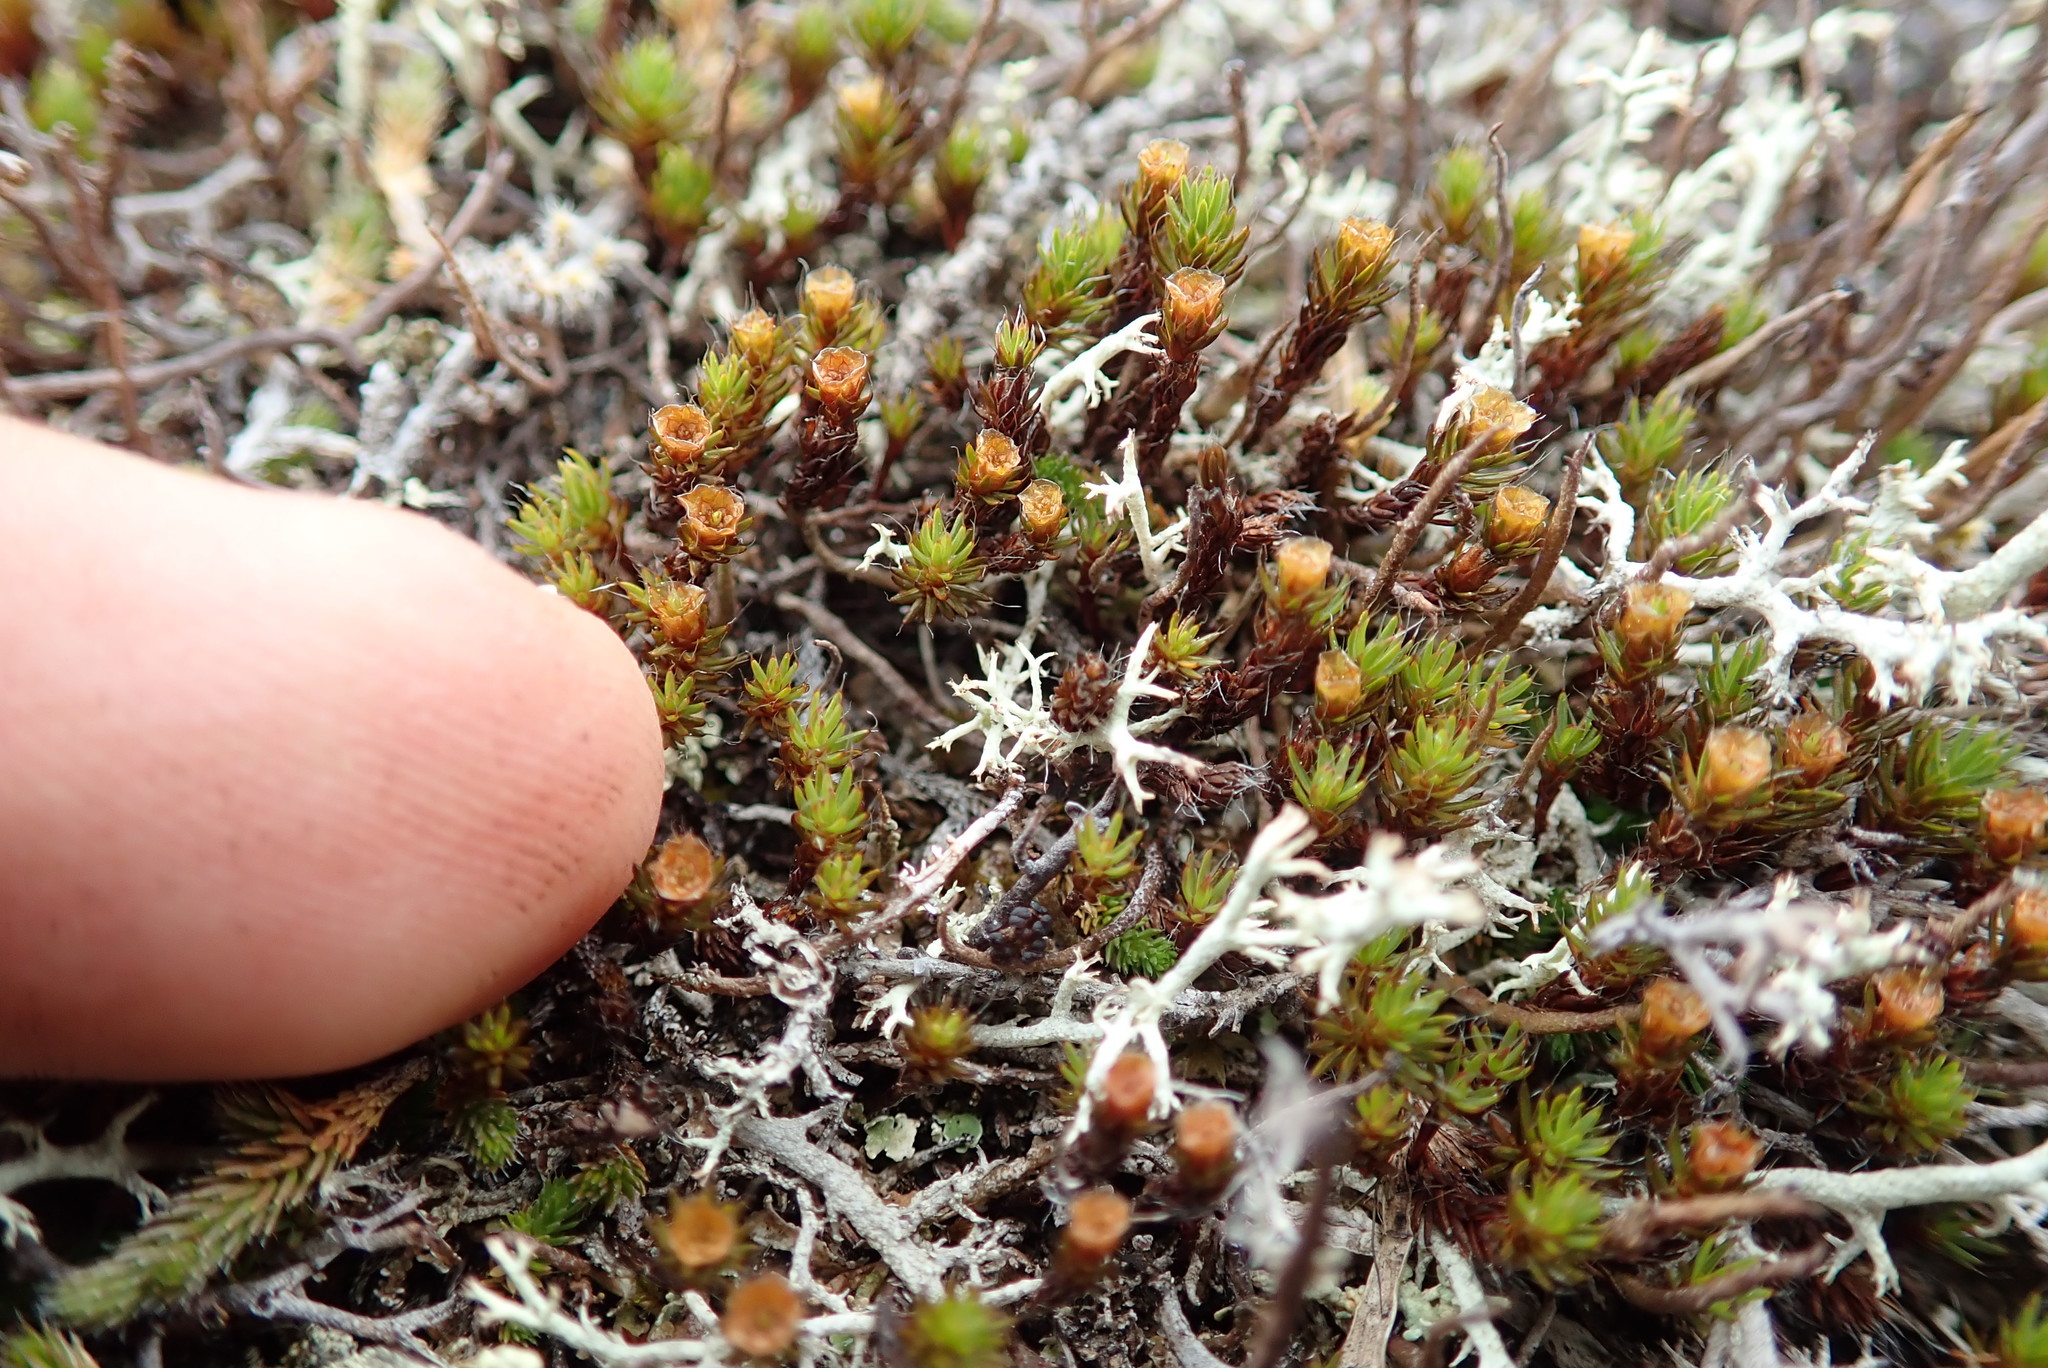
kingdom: Plantae
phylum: Bryophyta
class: Polytrichopsida
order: Polytrichales
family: Polytrichaceae
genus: Pogonatum
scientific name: Pogonatum urnigerum
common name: Urn hair moss
